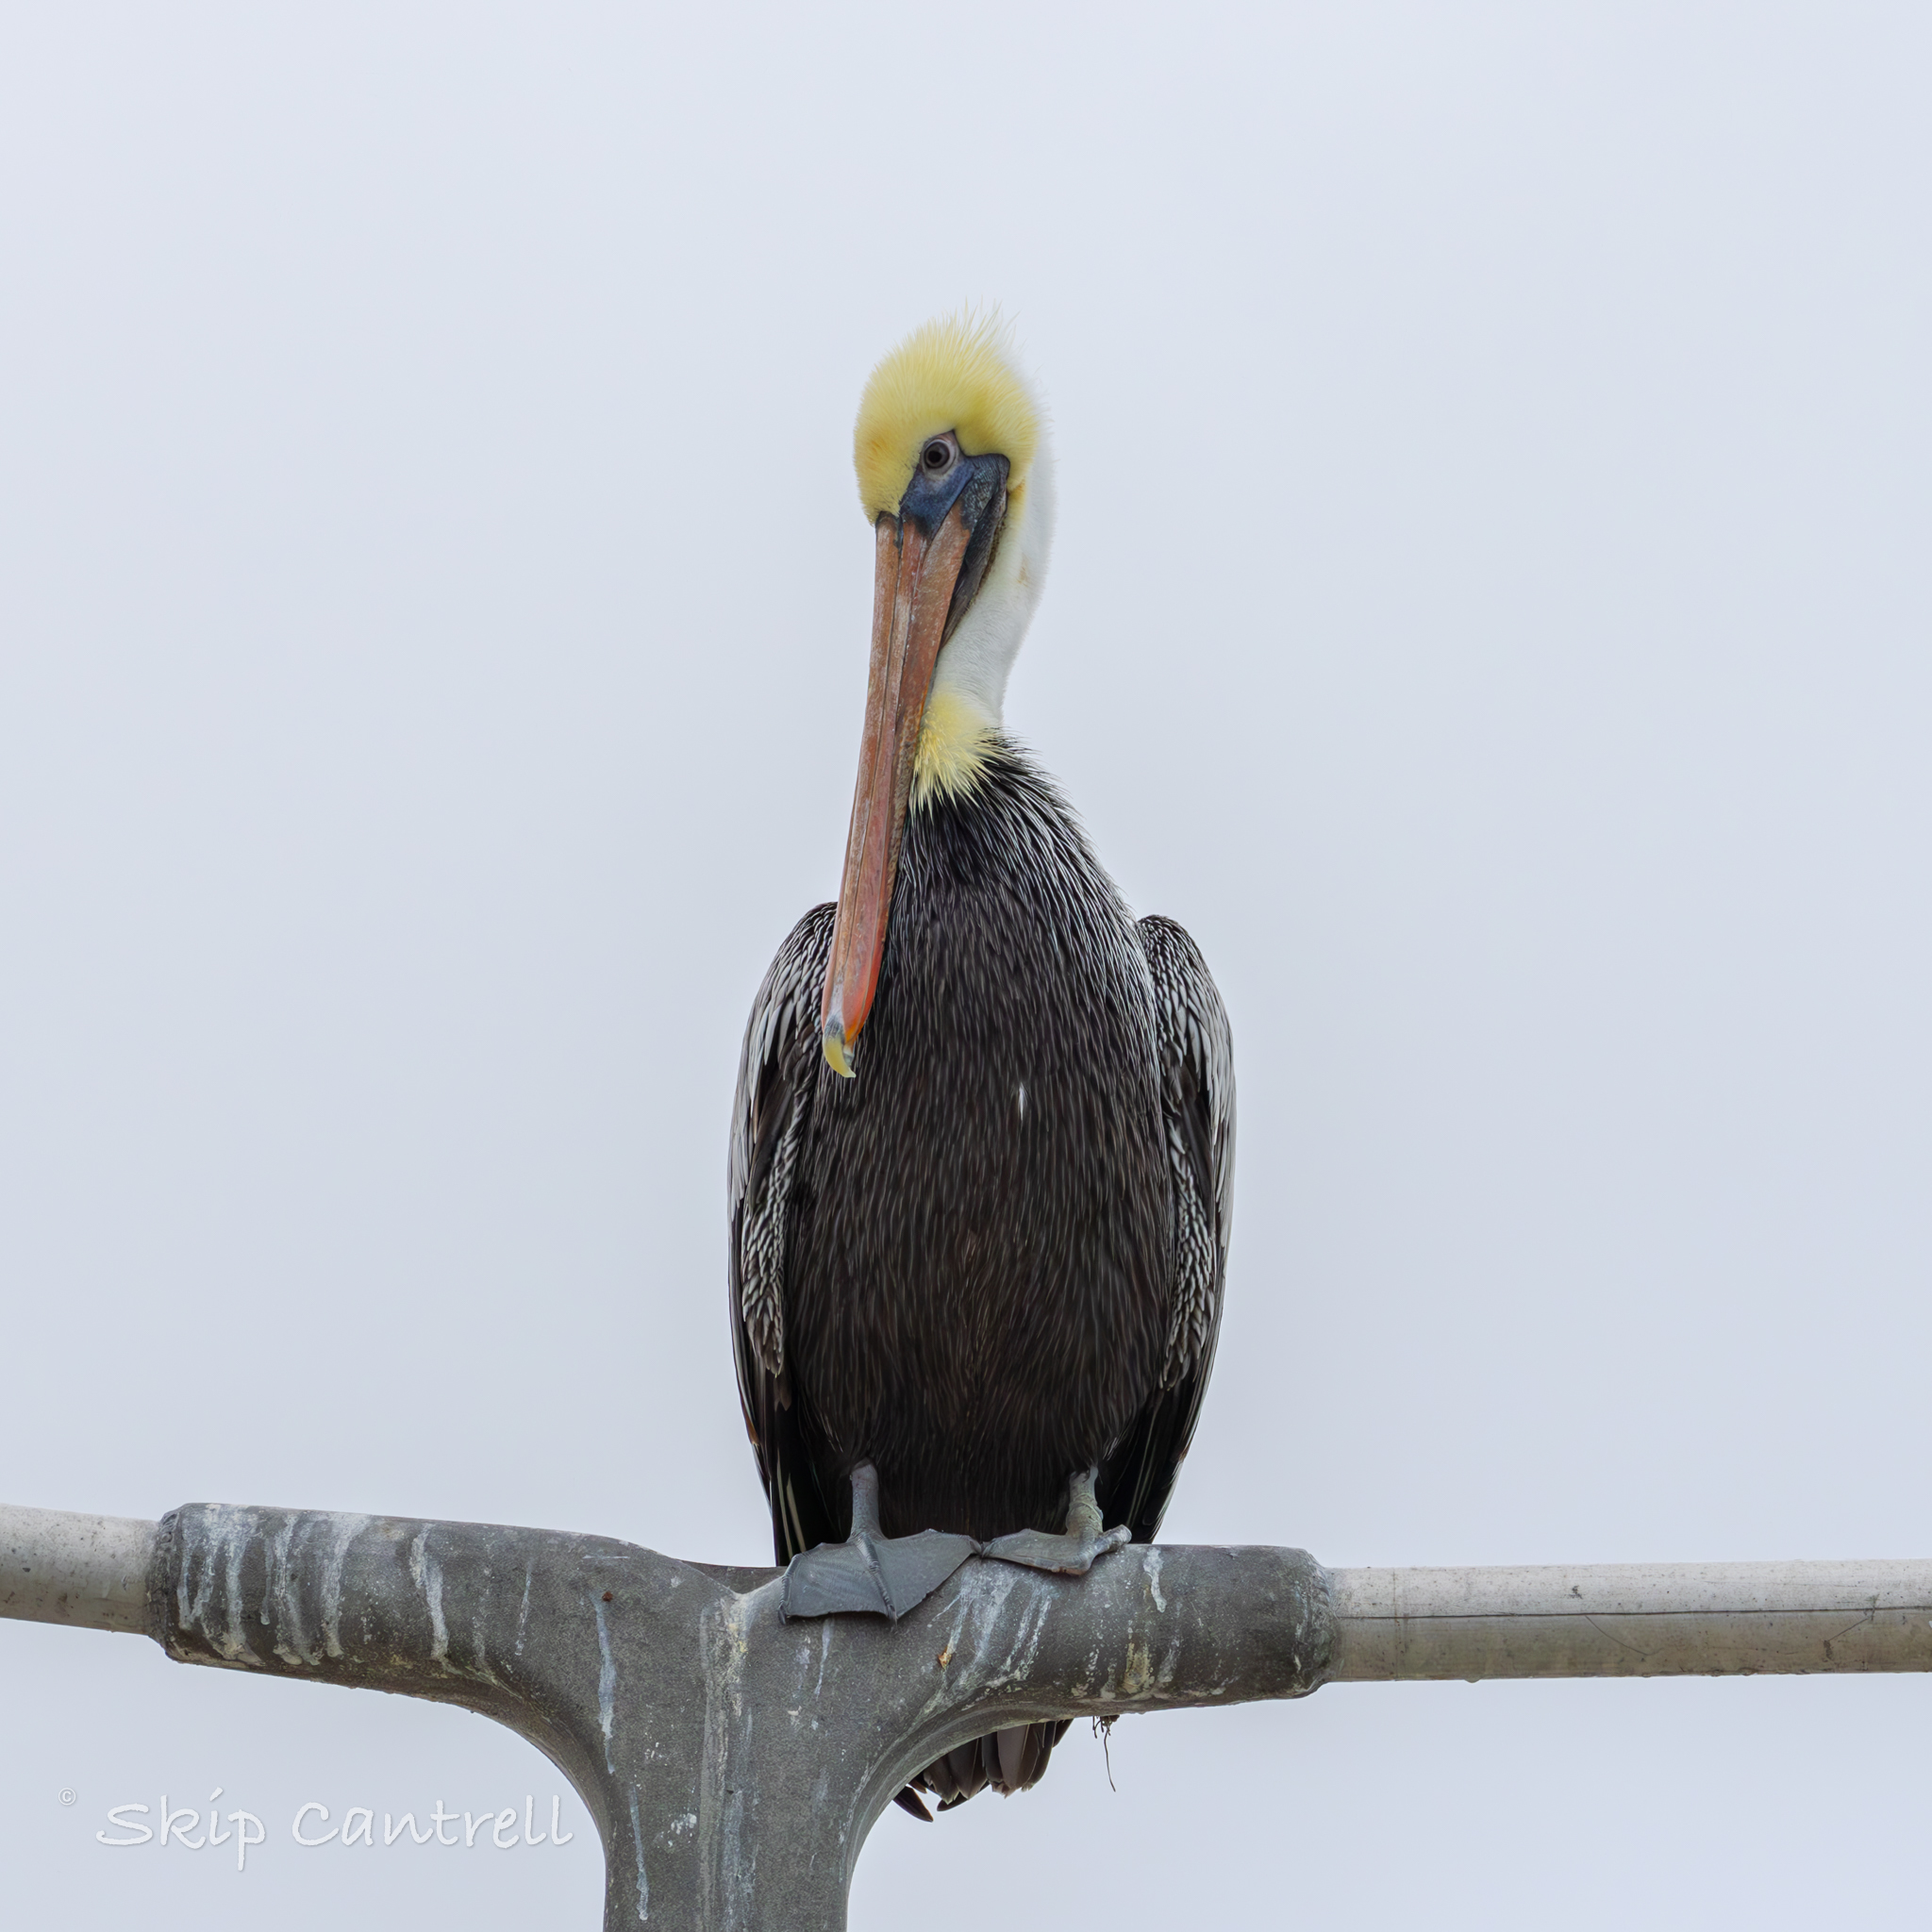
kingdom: Animalia
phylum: Chordata
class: Aves
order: Pelecaniformes
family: Pelecanidae
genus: Pelecanus
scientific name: Pelecanus occidentalis
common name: Brown pelican
